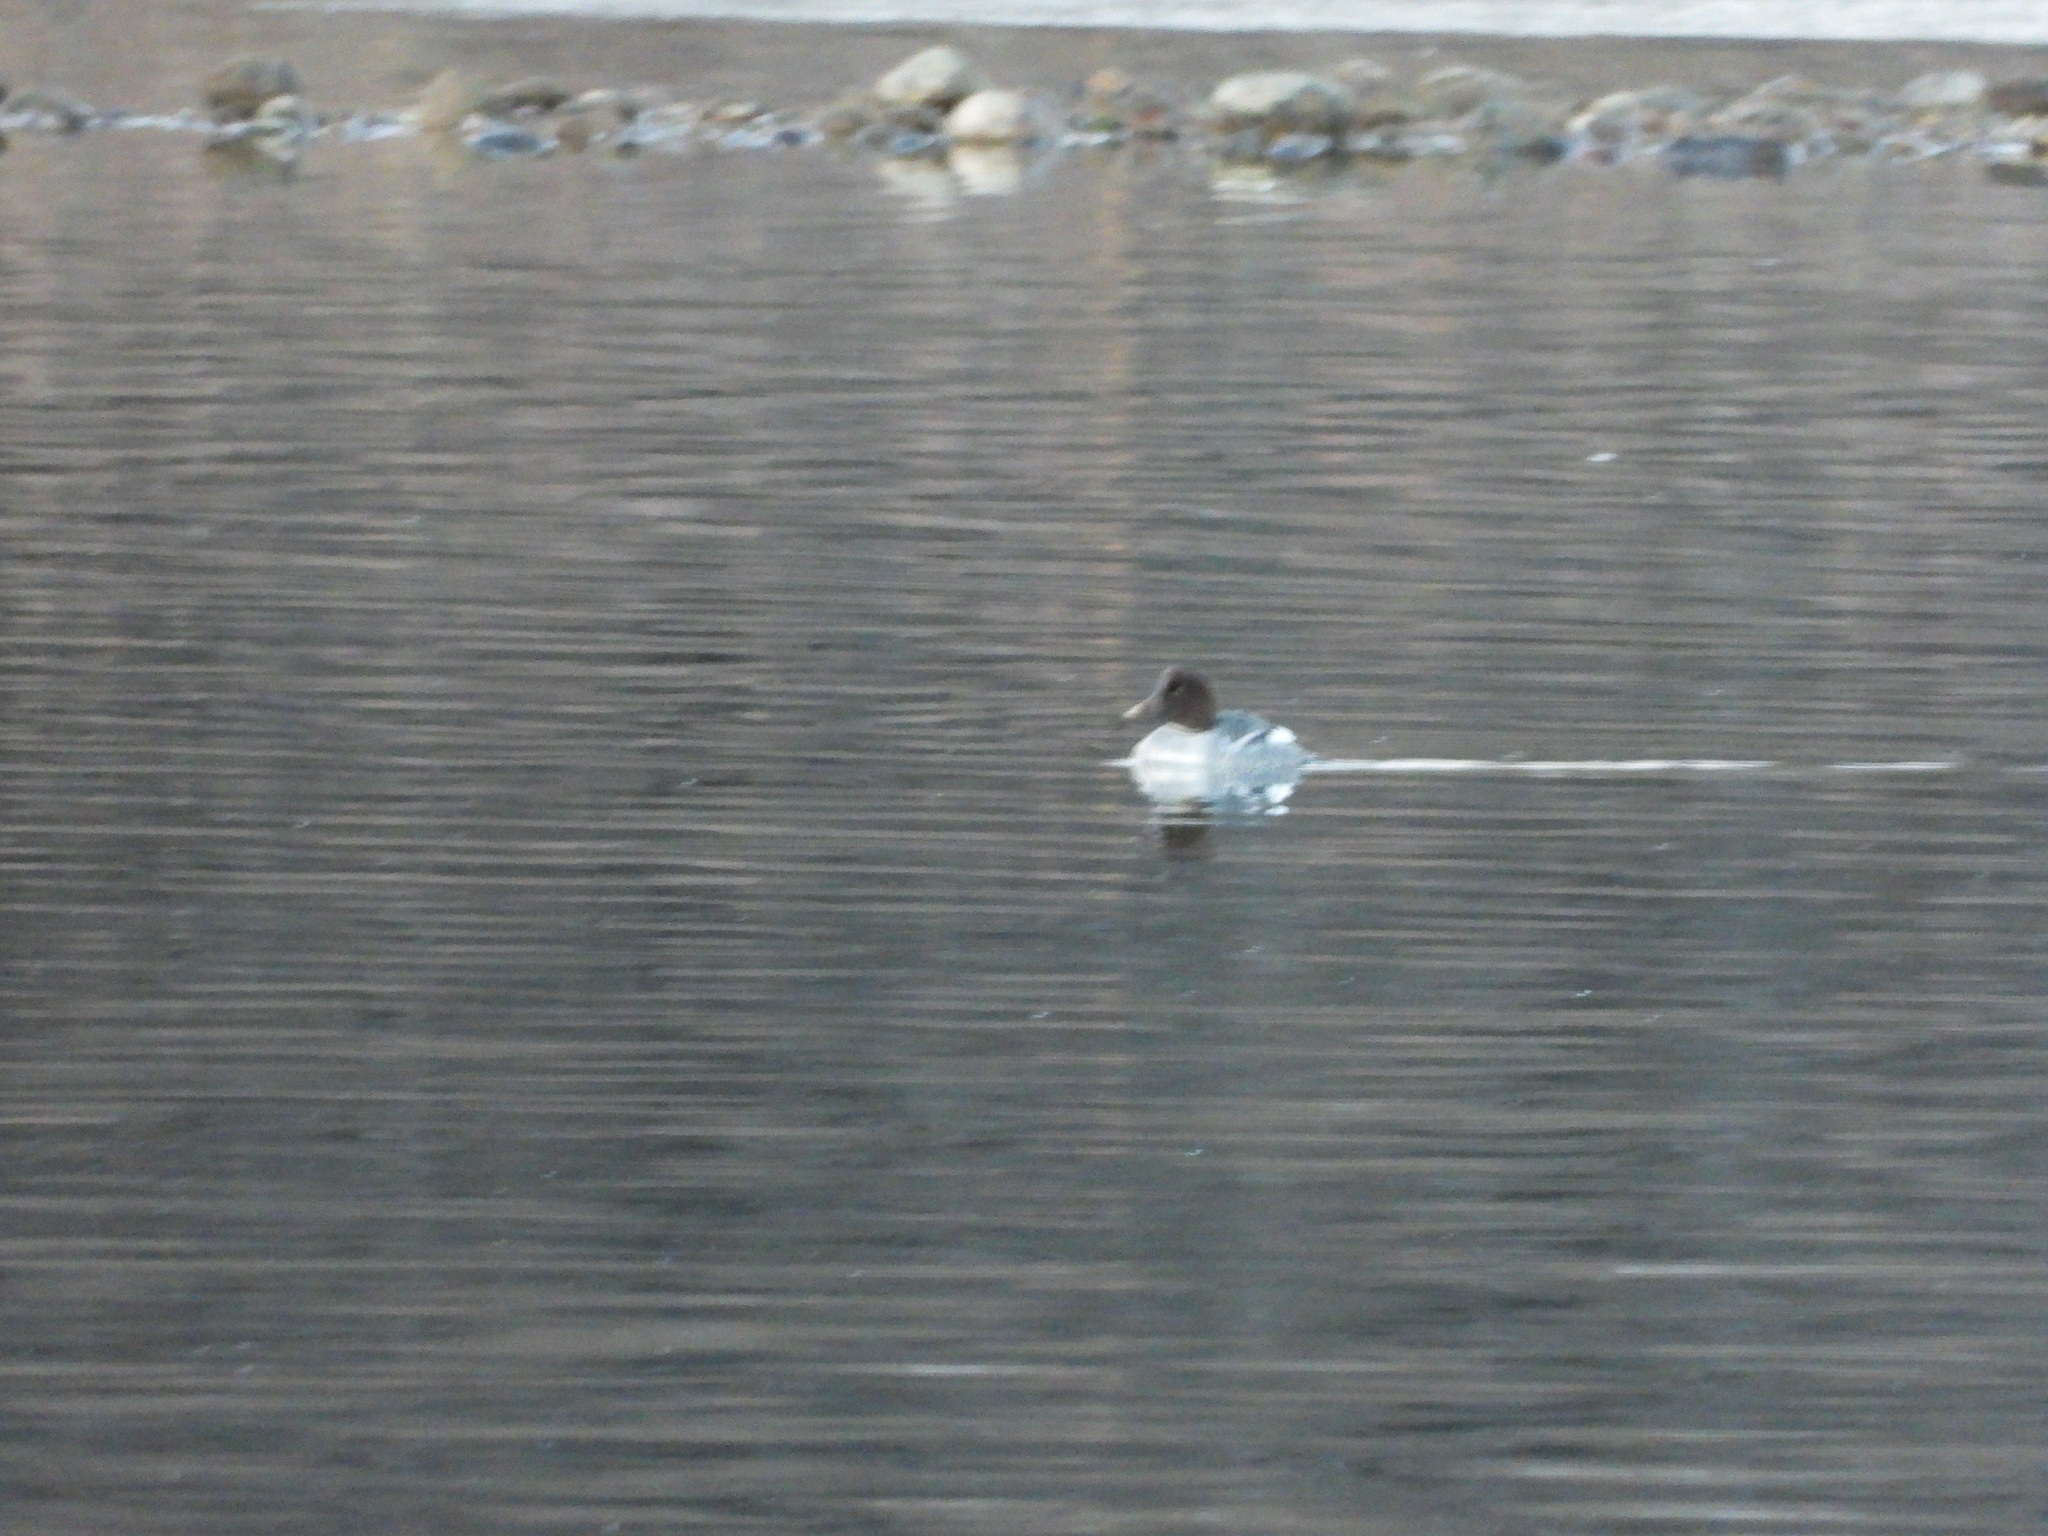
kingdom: Animalia
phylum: Chordata
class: Aves
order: Anseriformes
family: Anatidae
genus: Bucephala
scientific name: Bucephala clangula
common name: Common goldeneye
